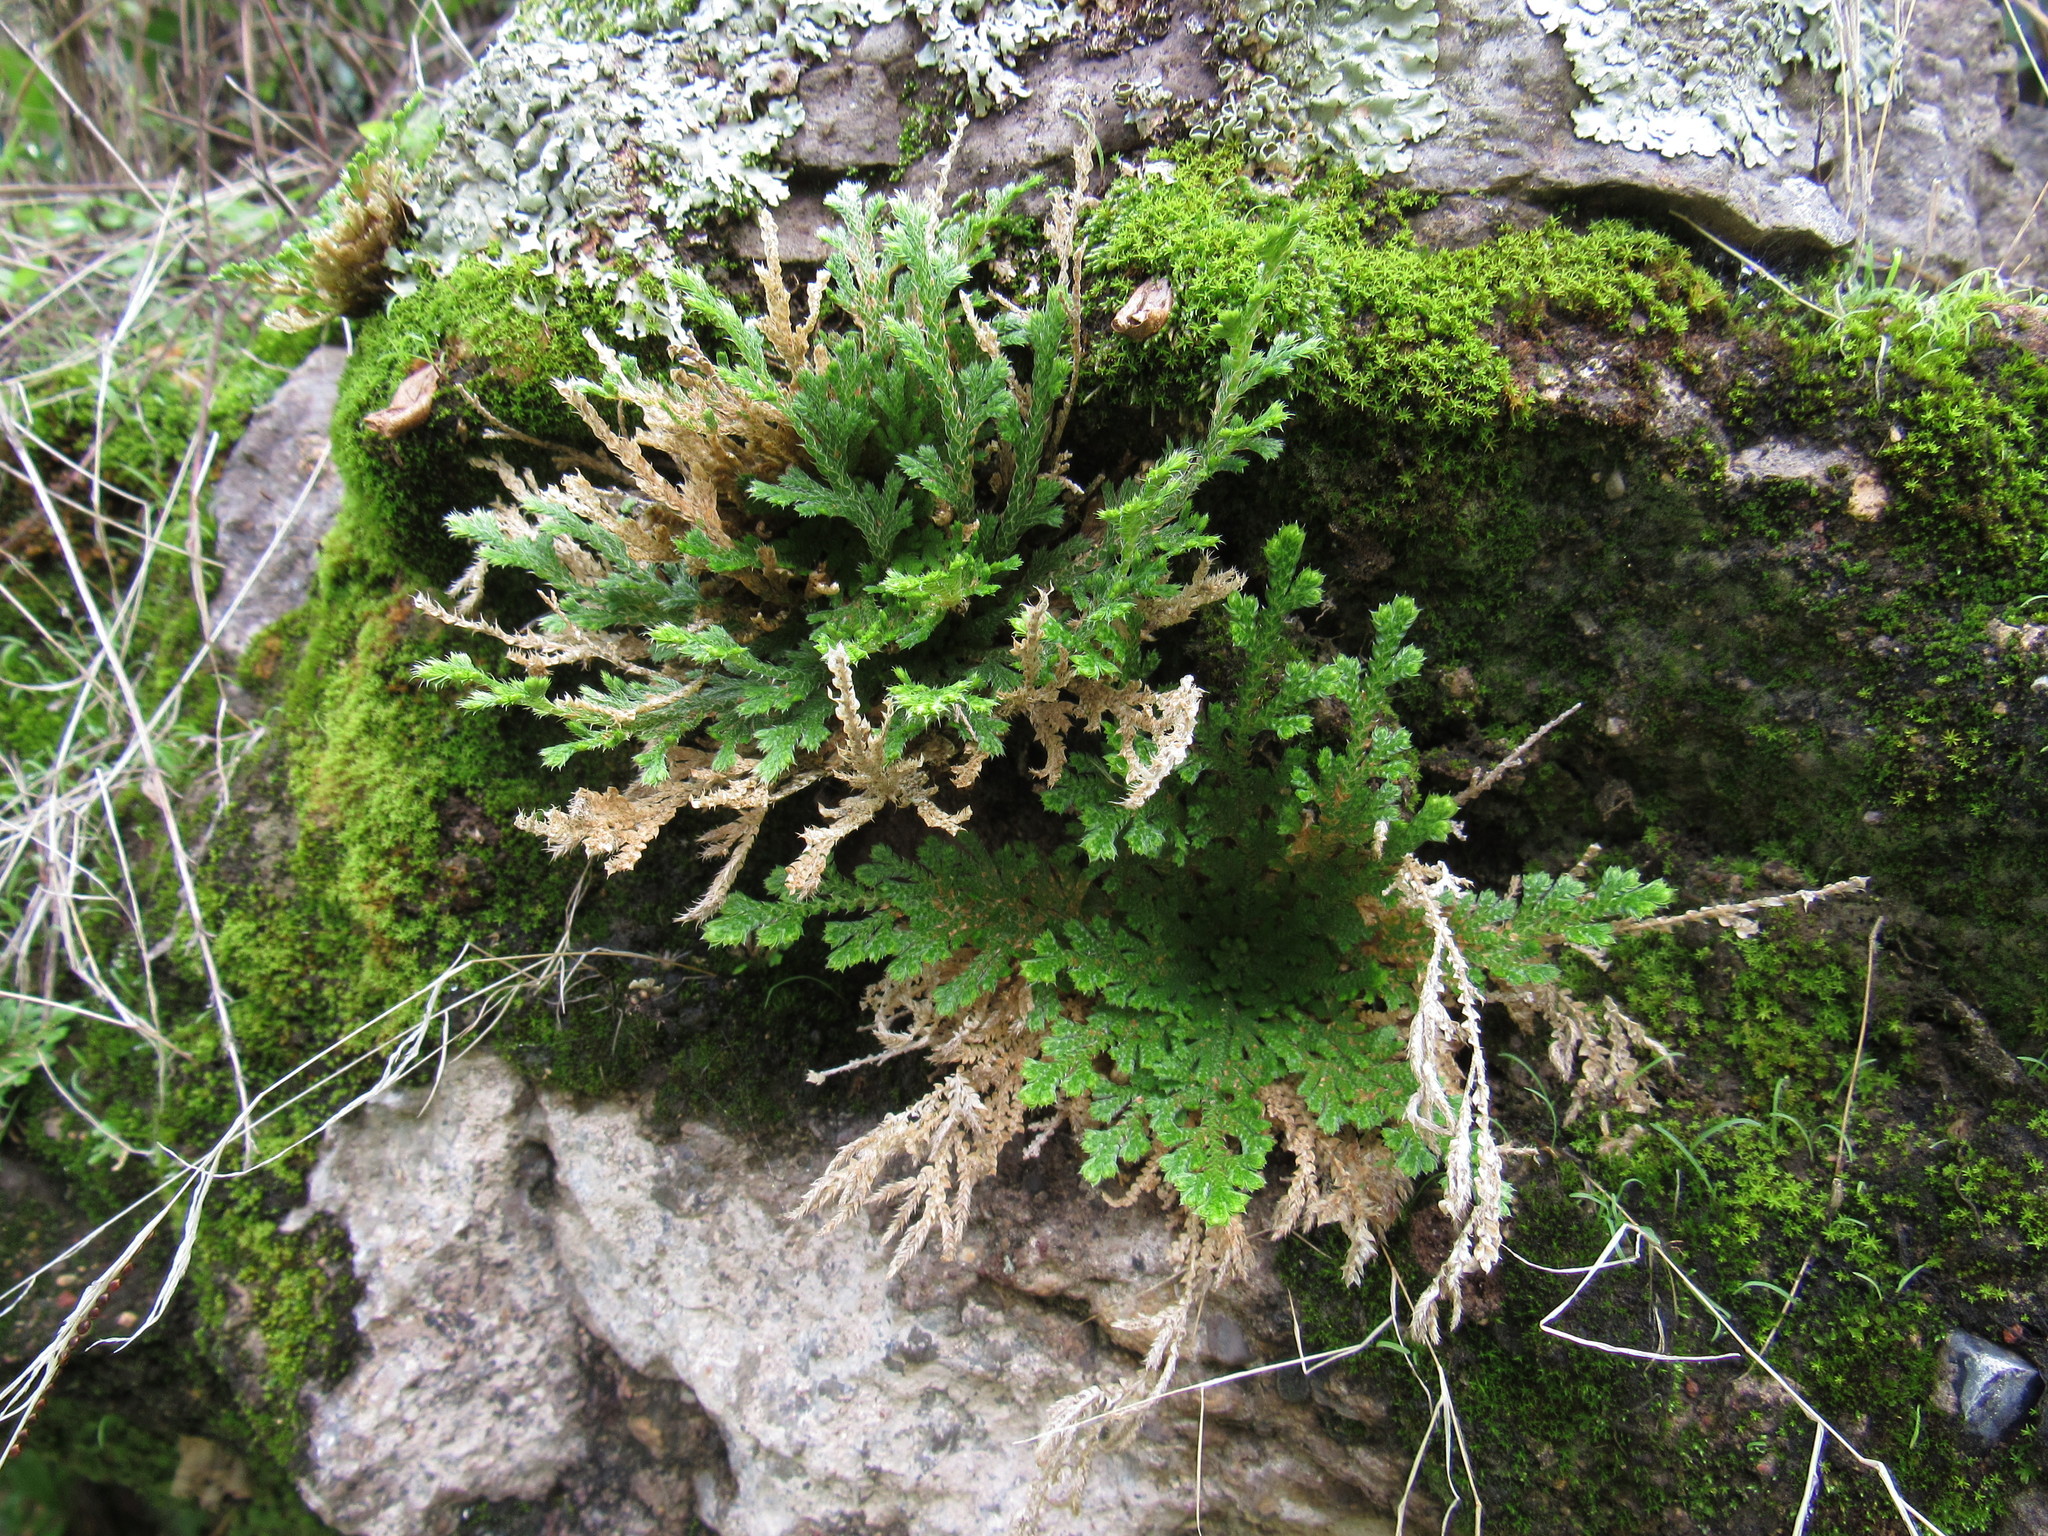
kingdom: Plantae
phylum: Tracheophyta
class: Lycopodiopsida
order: Selaginellales
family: Selaginellaceae
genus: Selaginella
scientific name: Selaginella lepidophylla
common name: Rose-of-jericho
